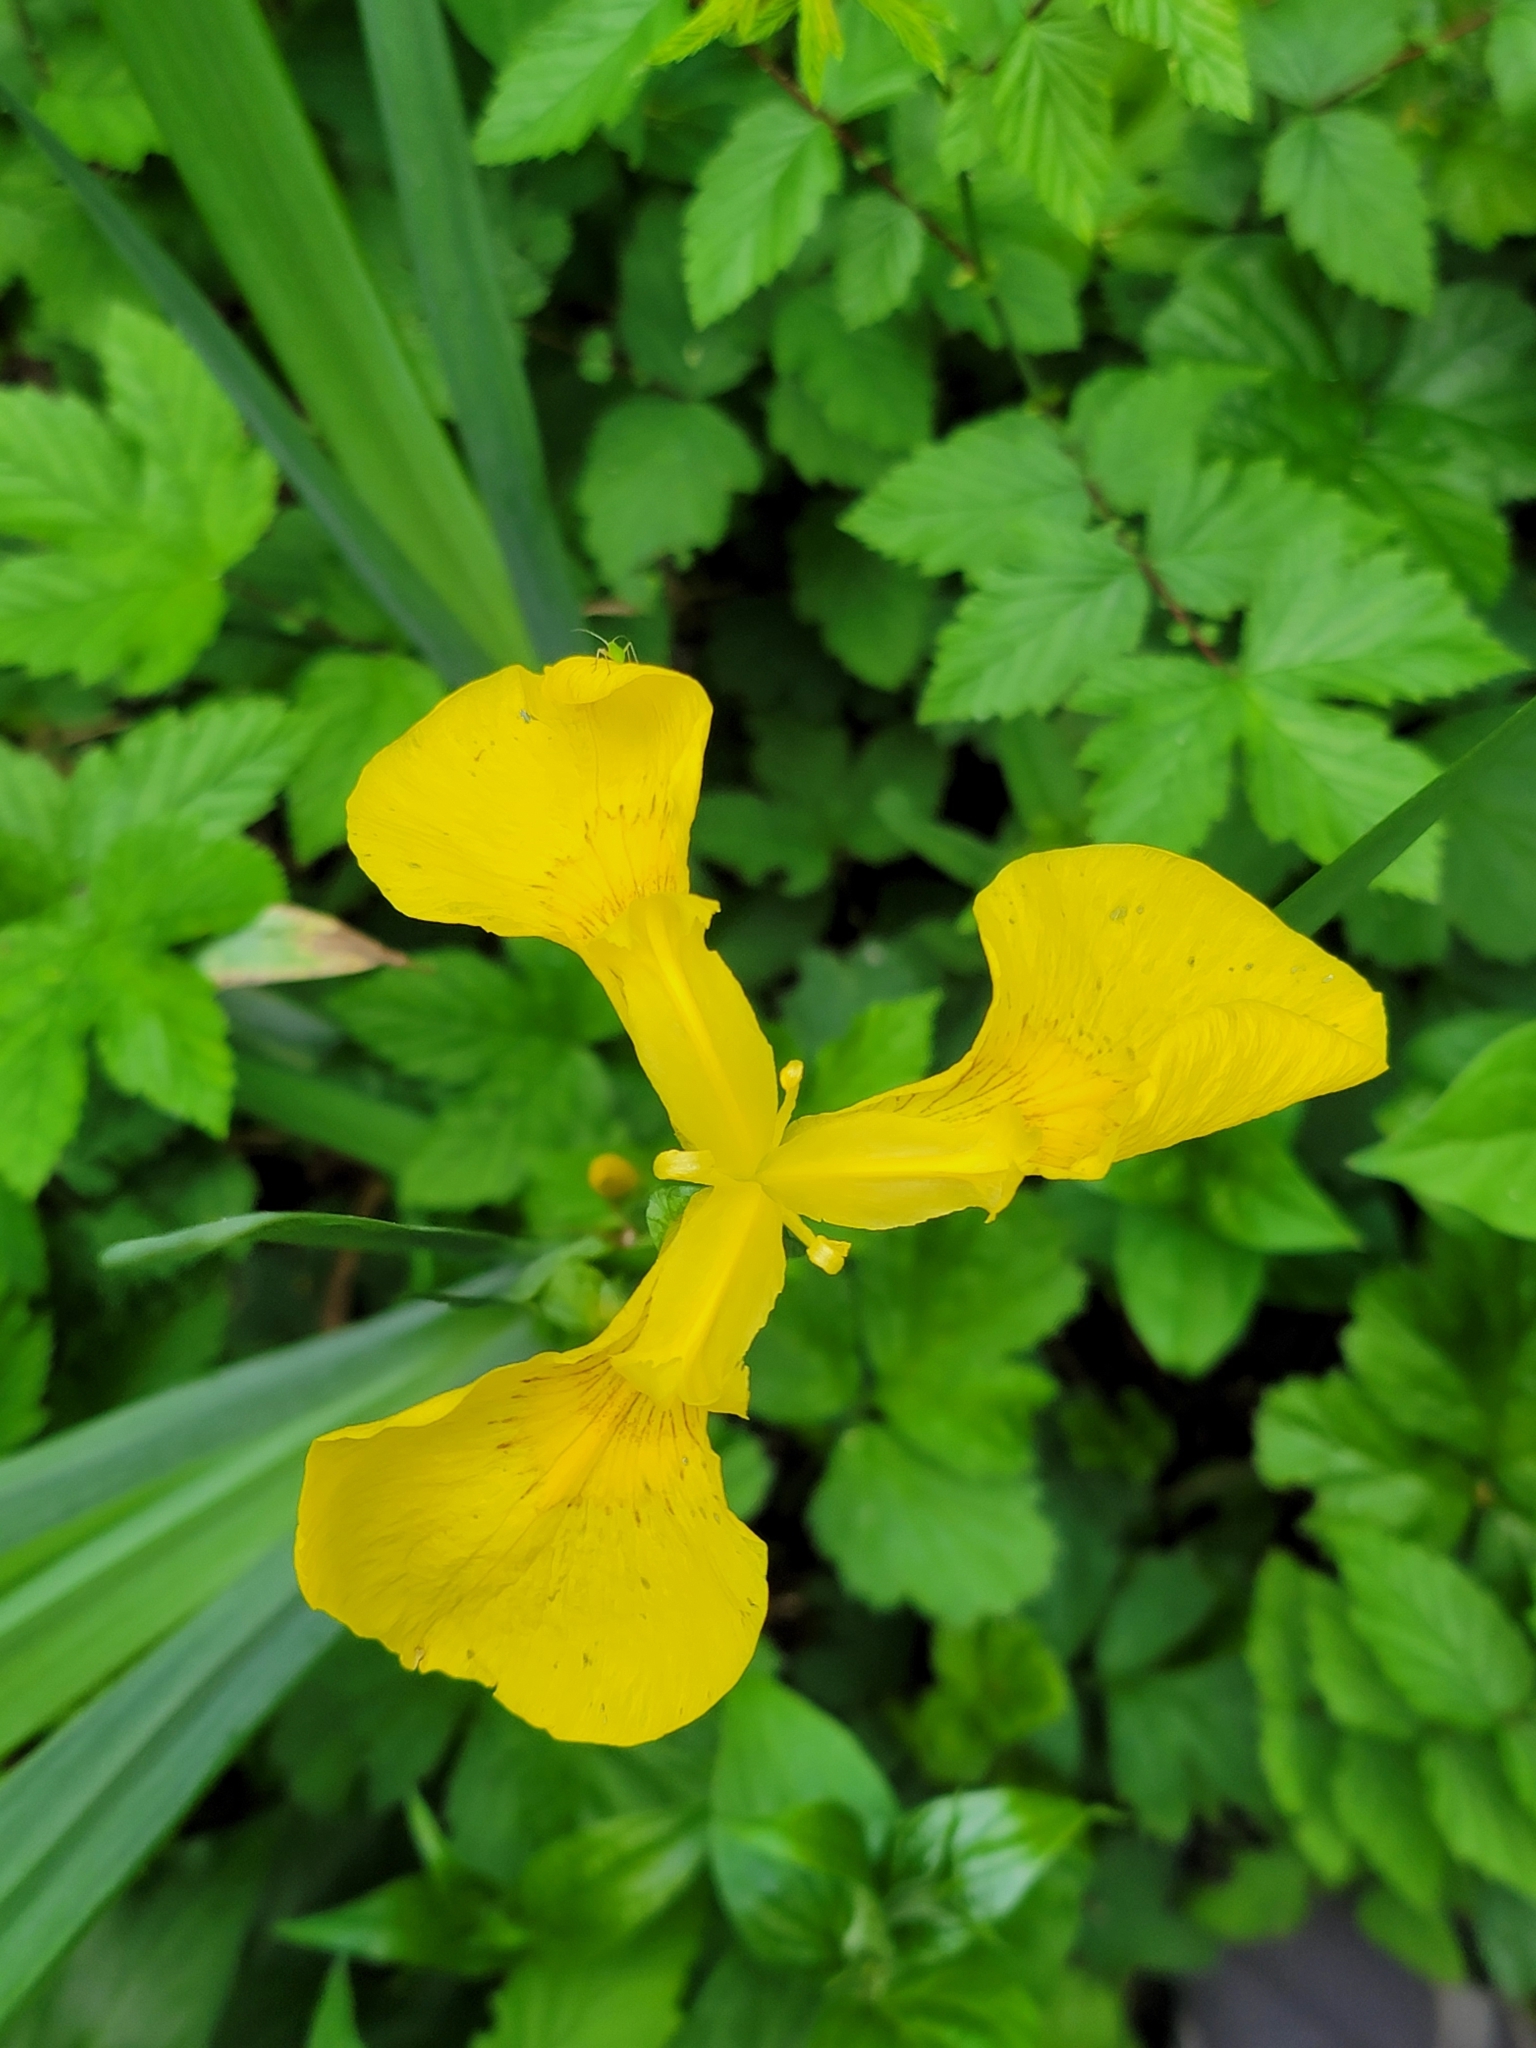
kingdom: Plantae
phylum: Tracheophyta
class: Liliopsida
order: Asparagales
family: Iridaceae
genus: Iris
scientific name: Iris pseudacorus
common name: Yellow flag
